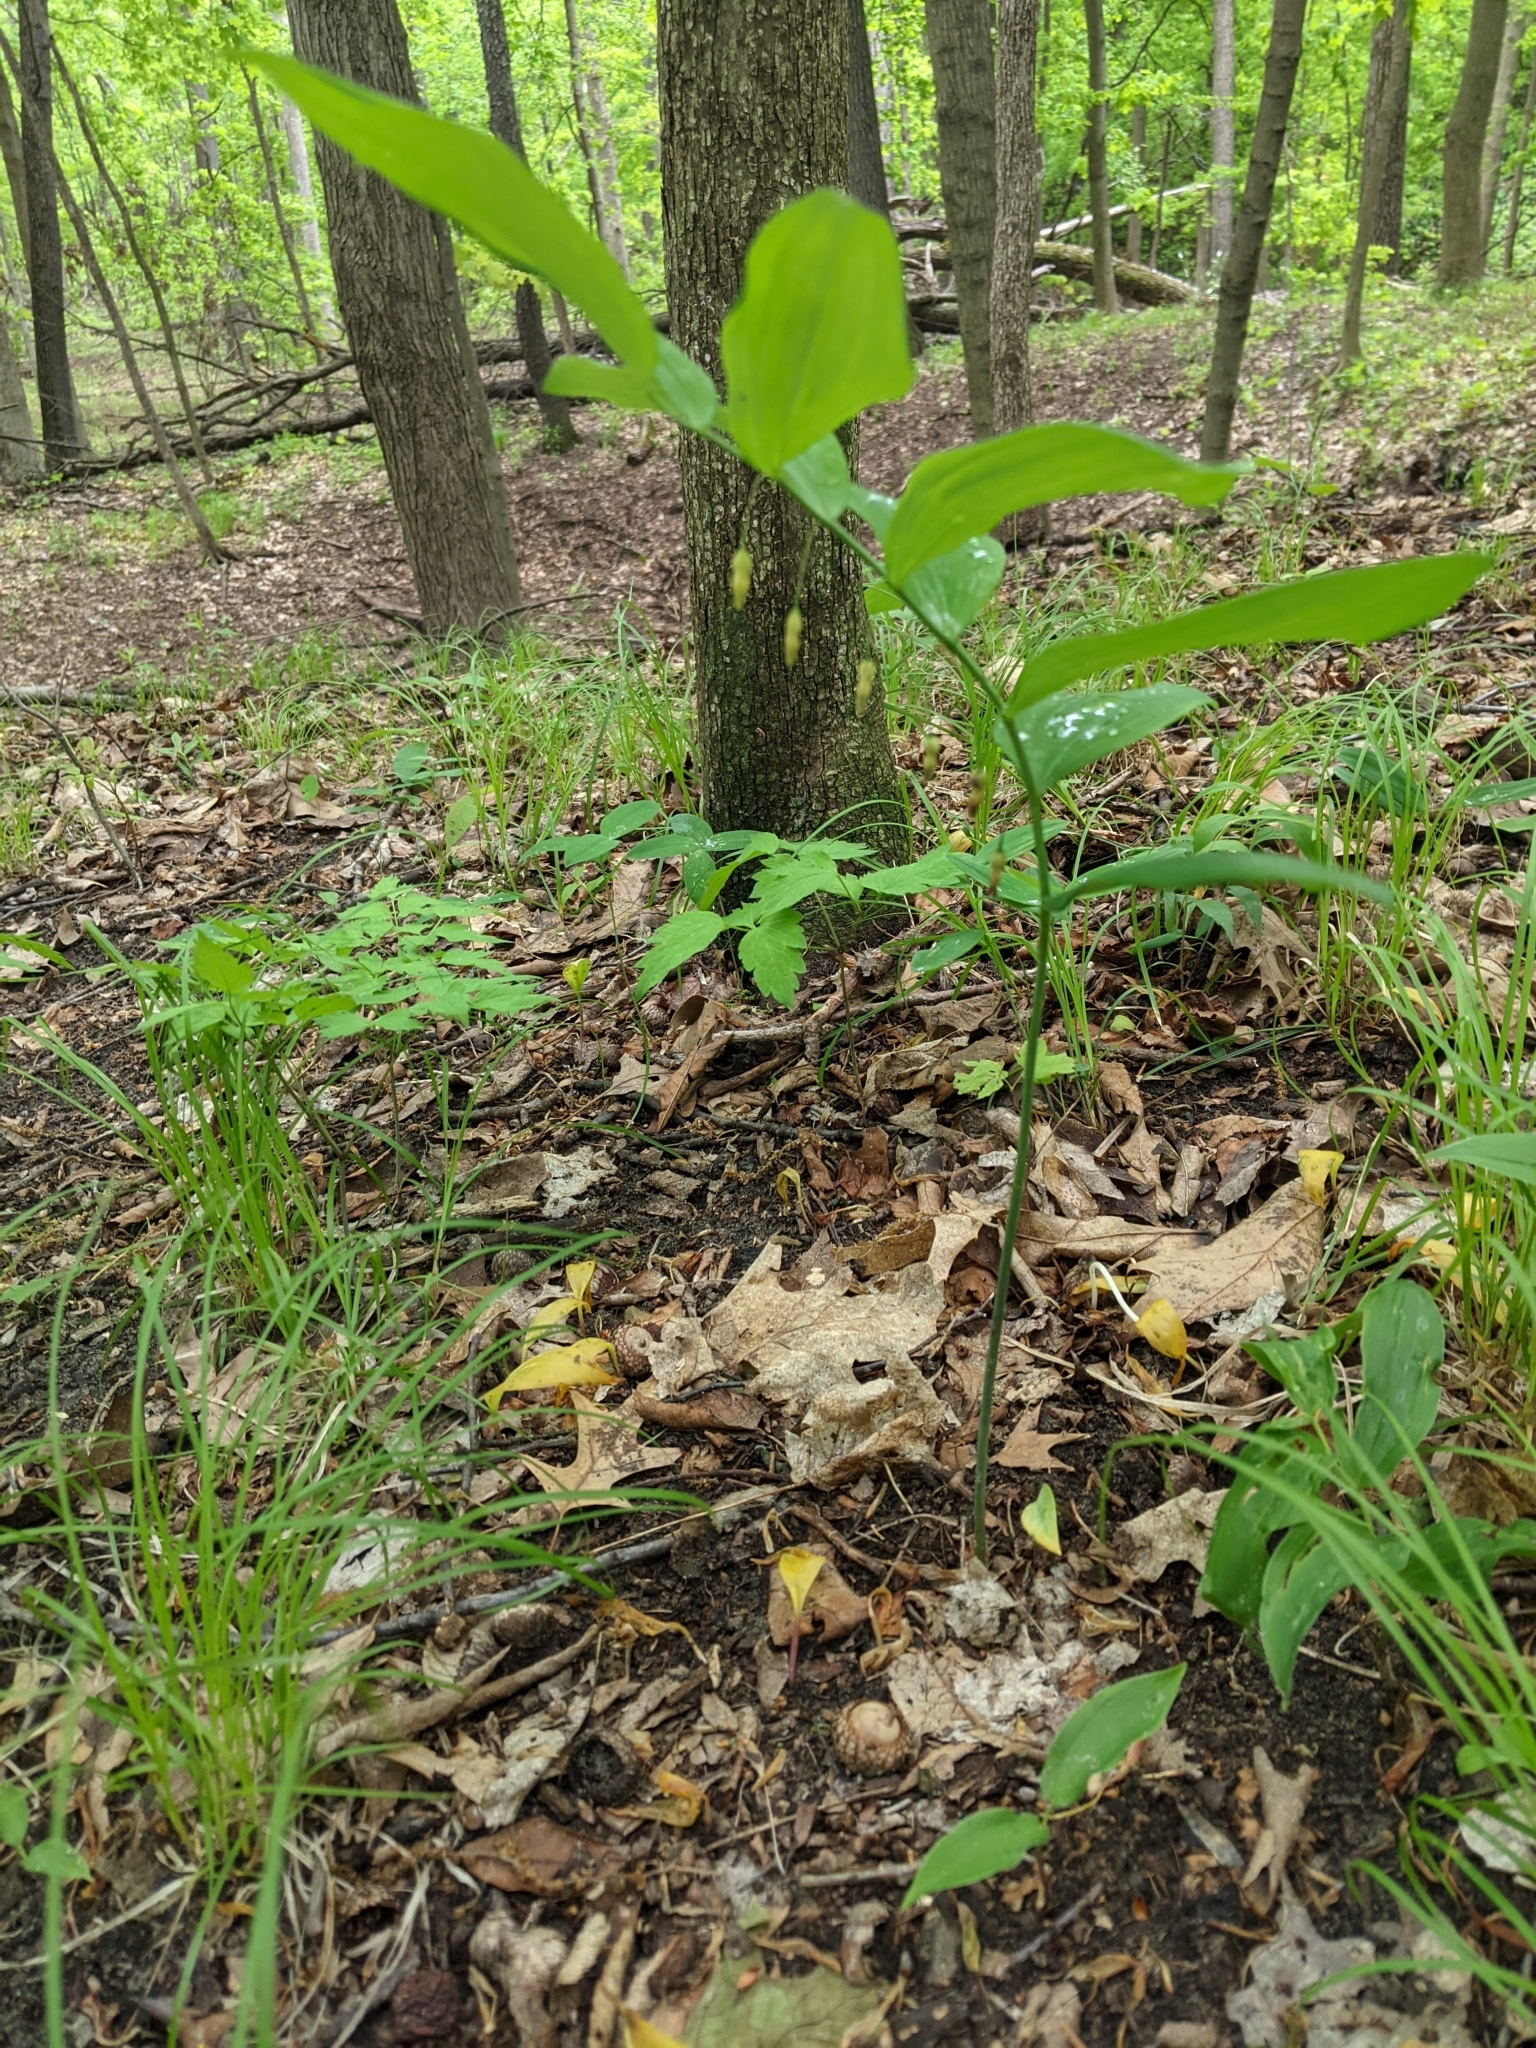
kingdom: Plantae
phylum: Tracheophyta
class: Liliopsida
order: Asparagales
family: Asparagaceae
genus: Polygonatum
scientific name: Polygonatum biflorum
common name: American solomon's-seal
